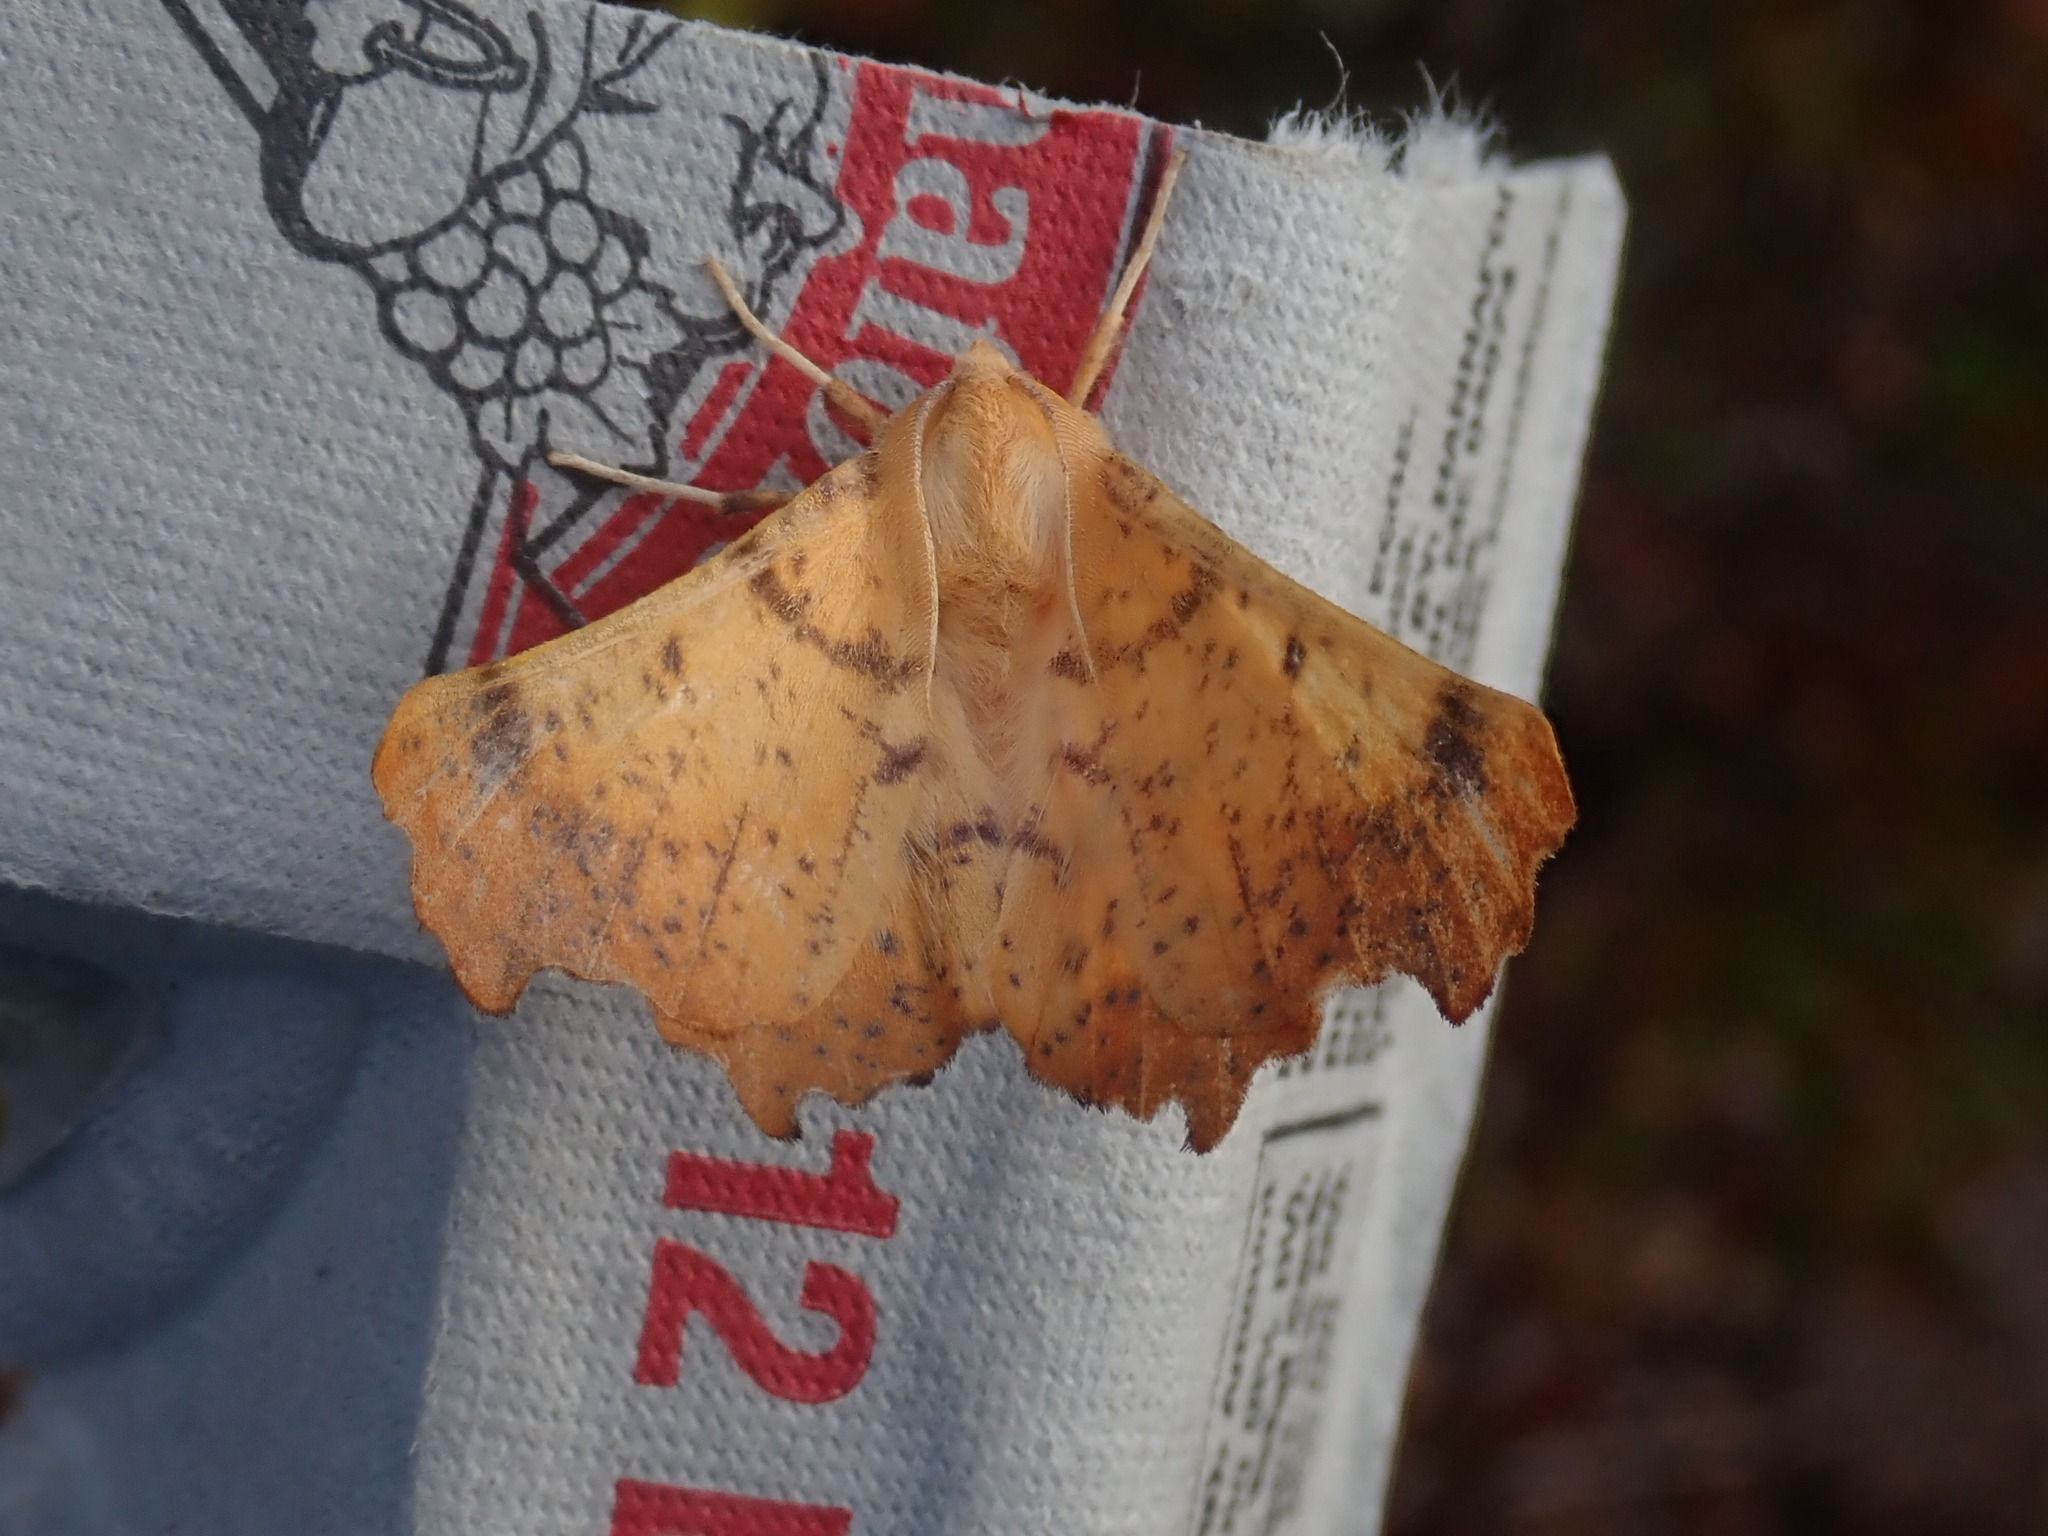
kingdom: Animalia
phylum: Arthropoda
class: Insecta
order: Lepidoptera
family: Geometridae
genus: Ennomos
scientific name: Ennomos magnaria
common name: Maple spanworm
